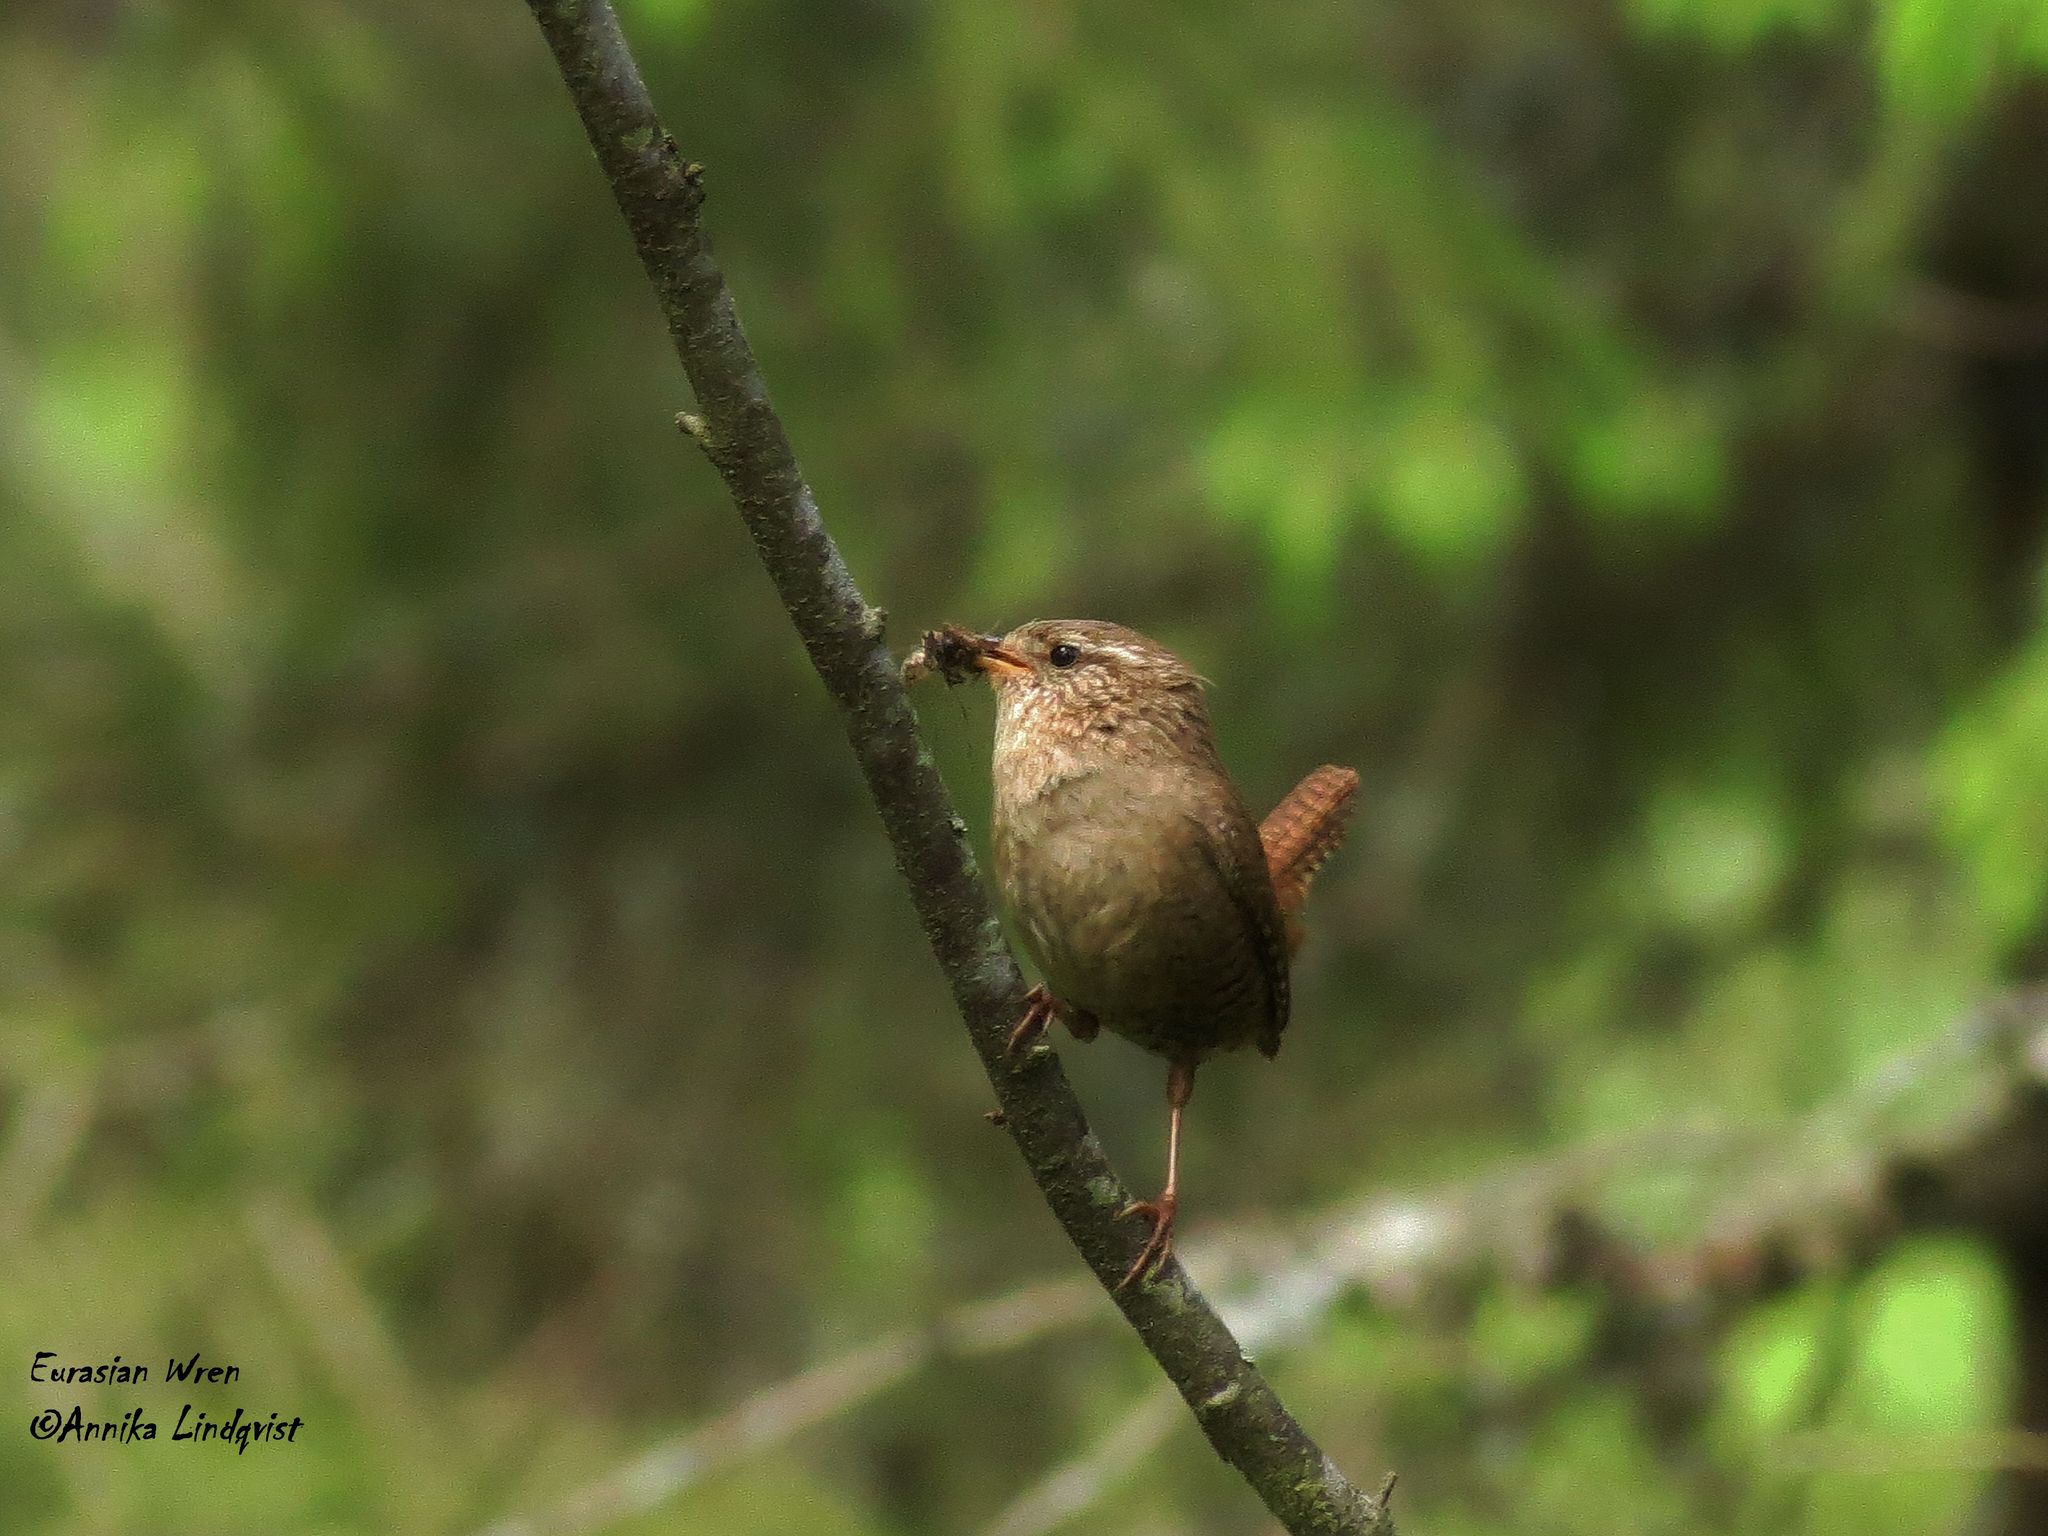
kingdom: Animalia
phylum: Chordata
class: Aves
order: Passeriformes
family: Troglodytidae
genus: Troglodytes
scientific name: Troglodytes troglodytes
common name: Eurasian wren
